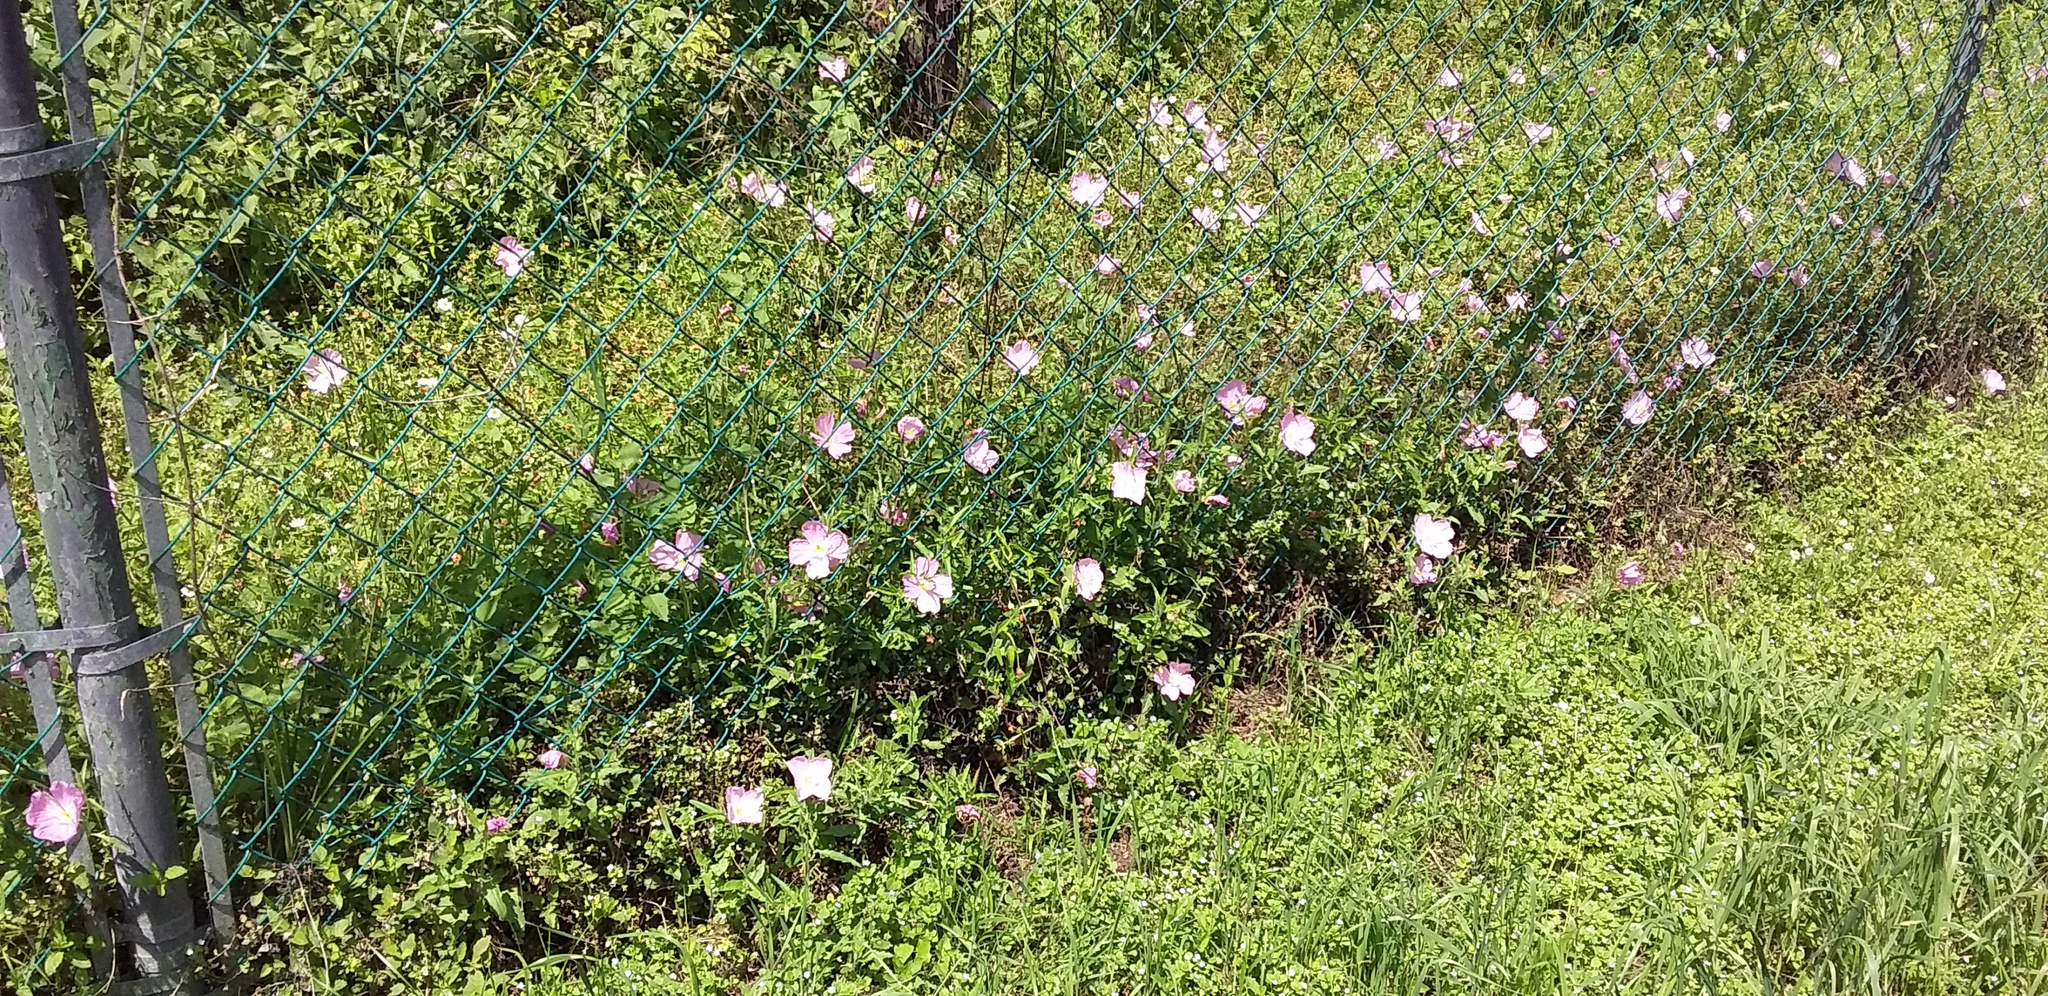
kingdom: Plantae
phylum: Tracheophyta
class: Magnoliopsida
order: Myrtales
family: Onagraceae
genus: Oenothera
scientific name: Oenothera speciosa
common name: White evening-primrose
